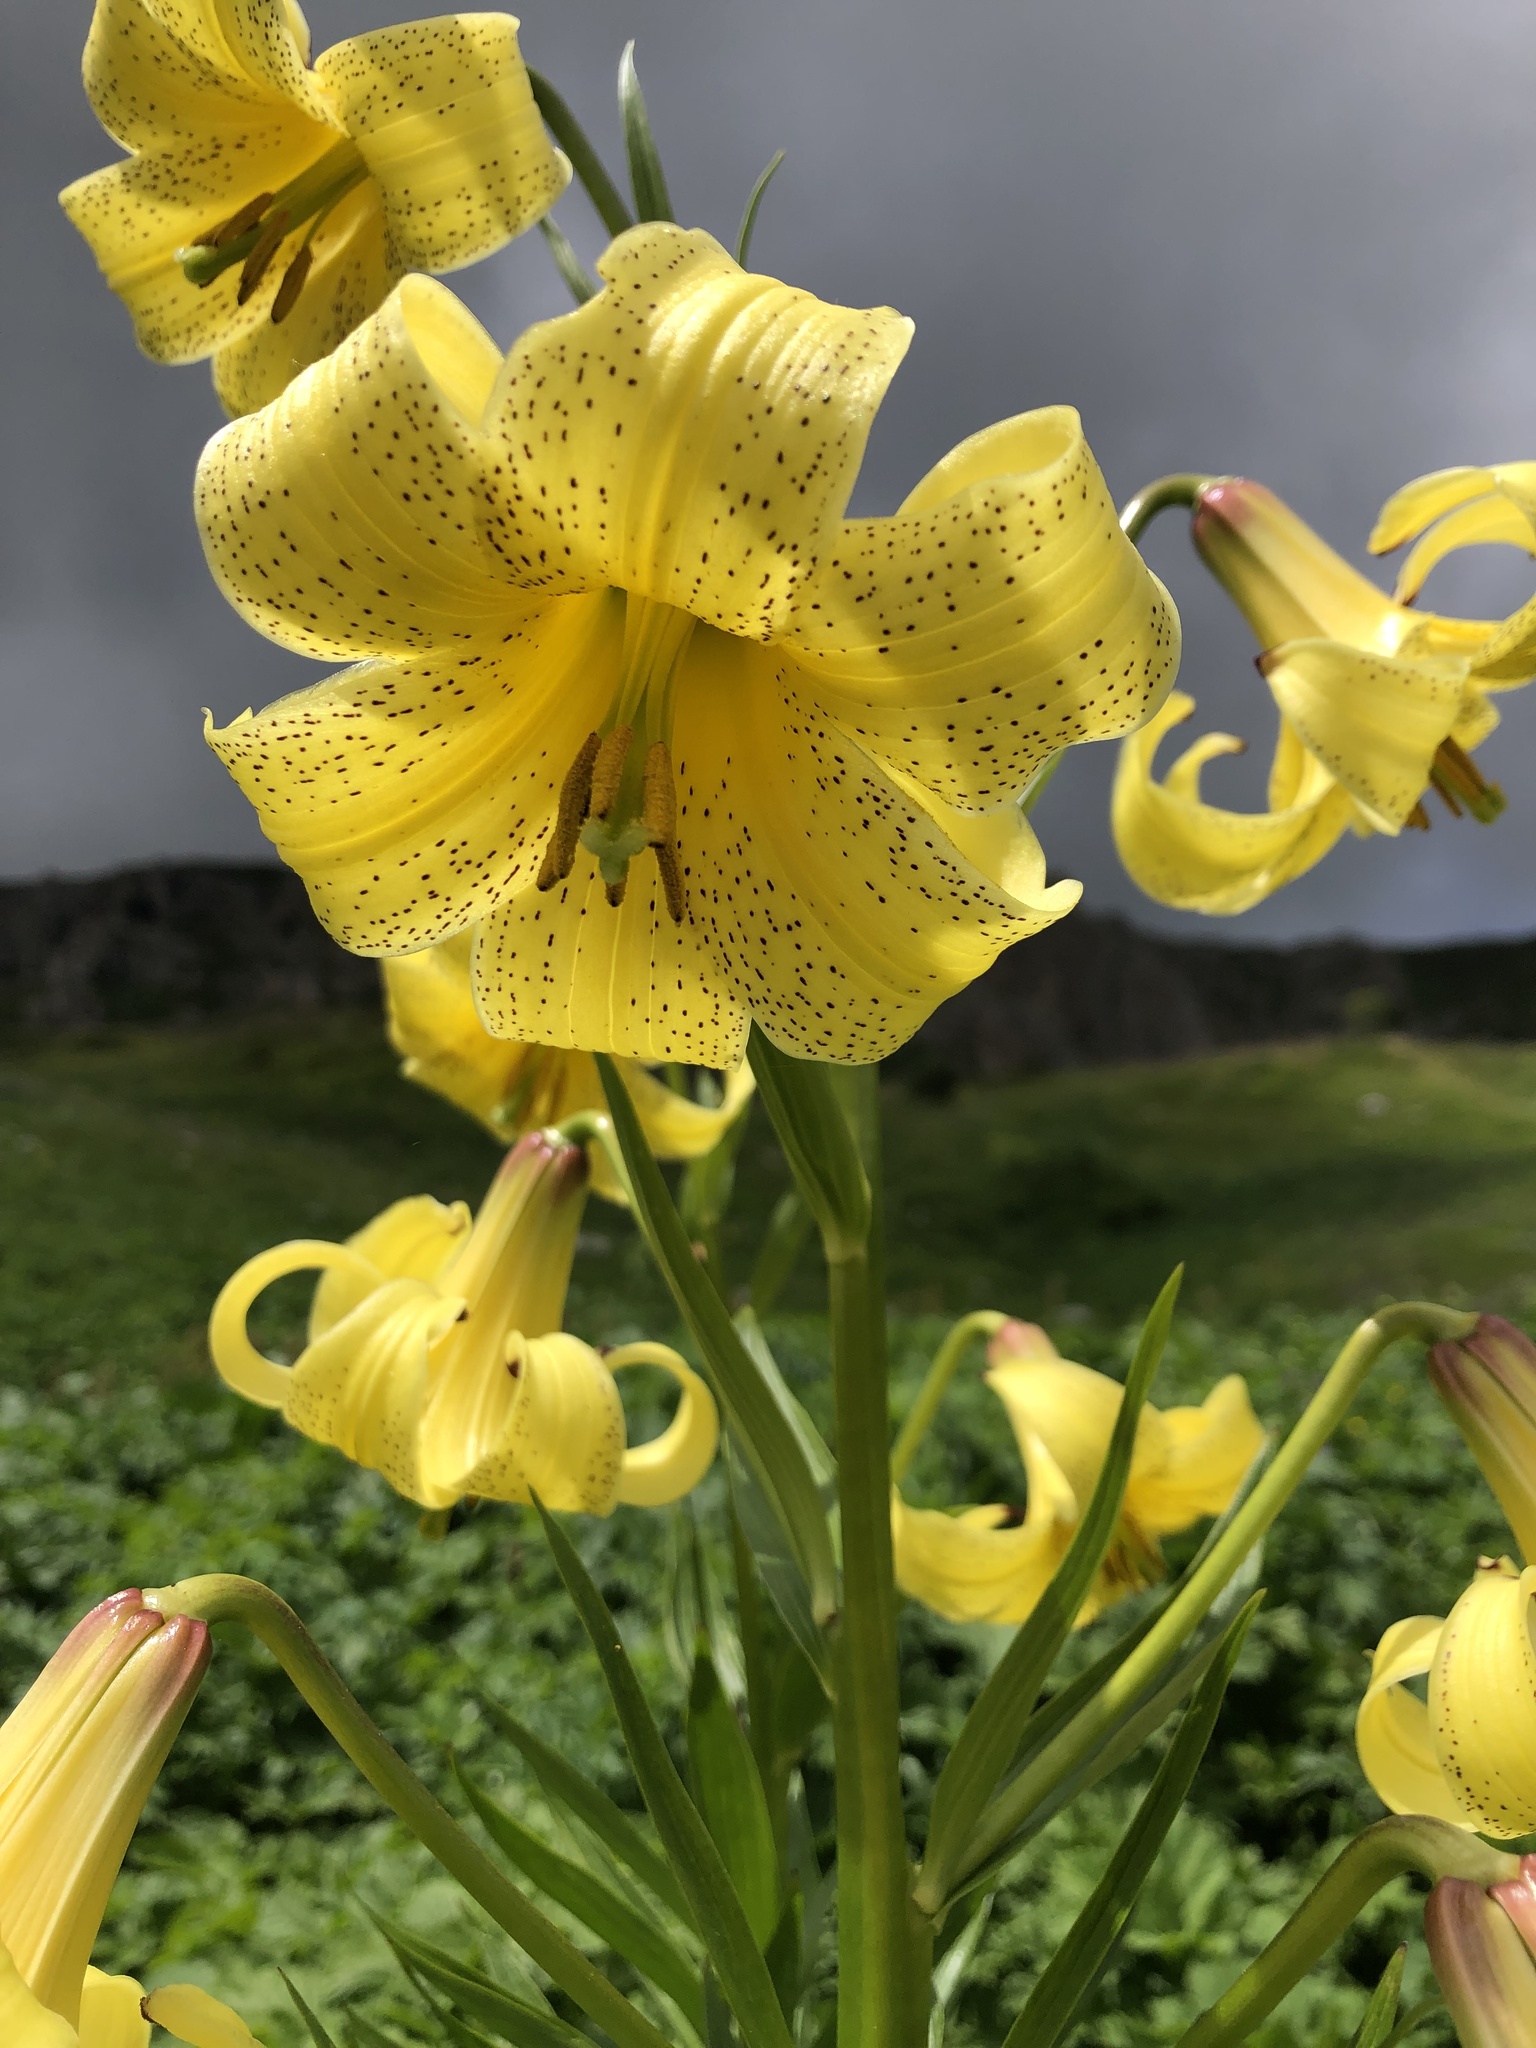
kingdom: Plantae
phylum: Tracheophyta
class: Liliopsida
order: Liliales
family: Liliaceae
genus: Lilium
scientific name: Lilium monadelphum
